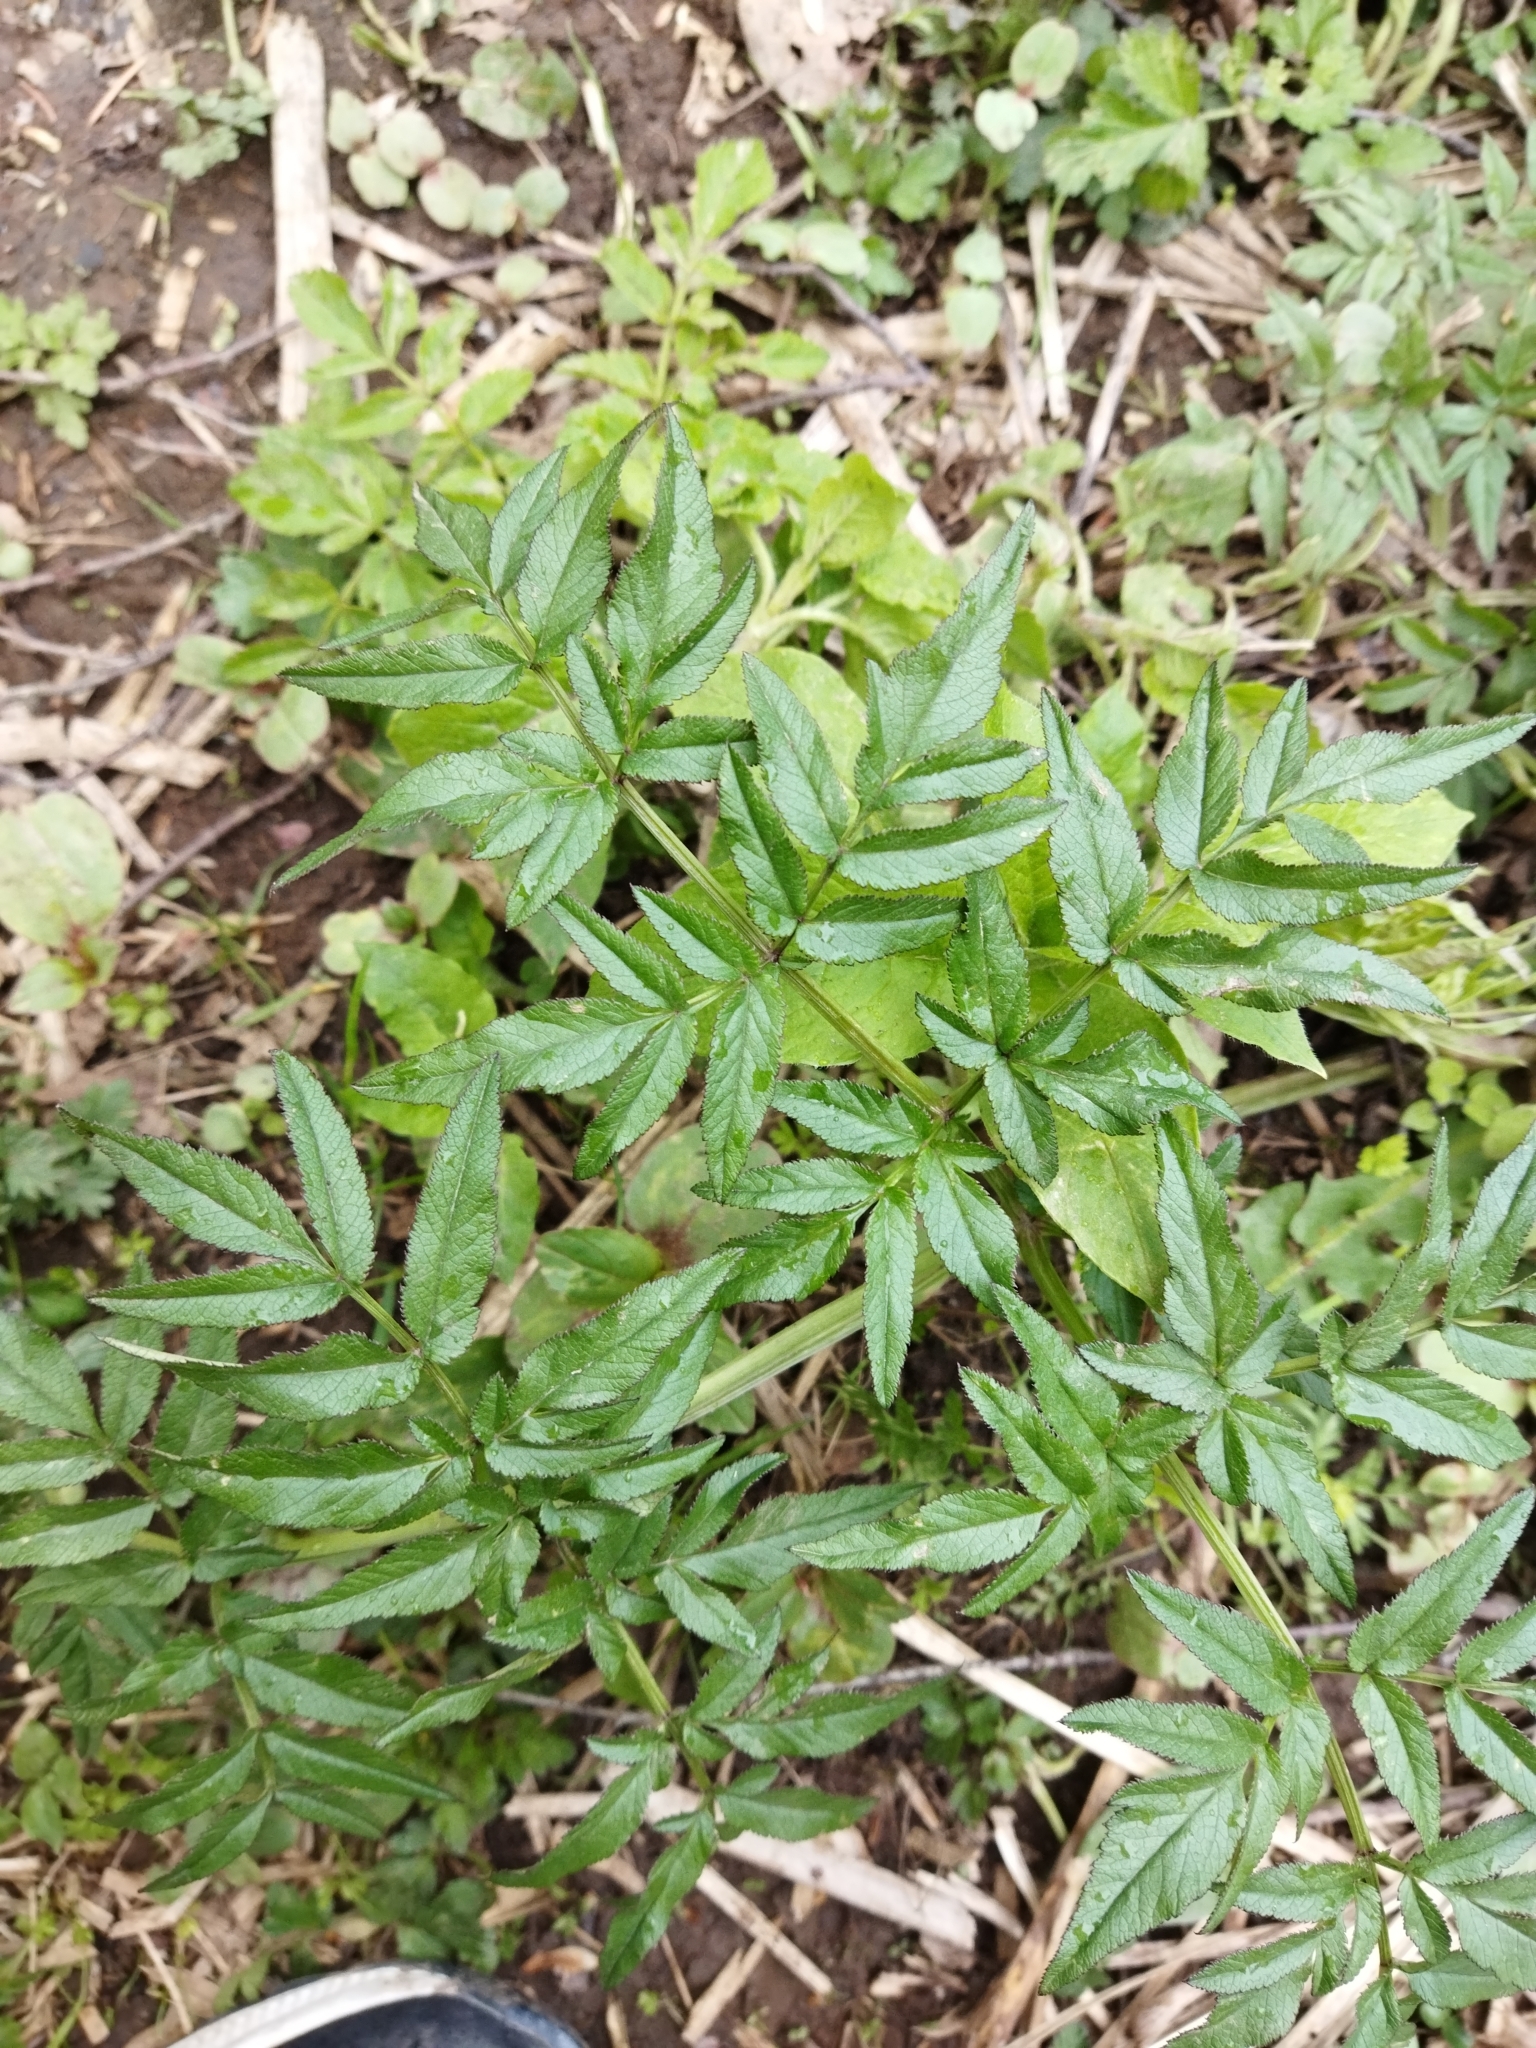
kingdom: Plantae
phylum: Tracheophyta
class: Magnoliopsida
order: Apiales
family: Apiaceae
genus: Angelica
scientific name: Angelica sylvestris
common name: Wild angelica
